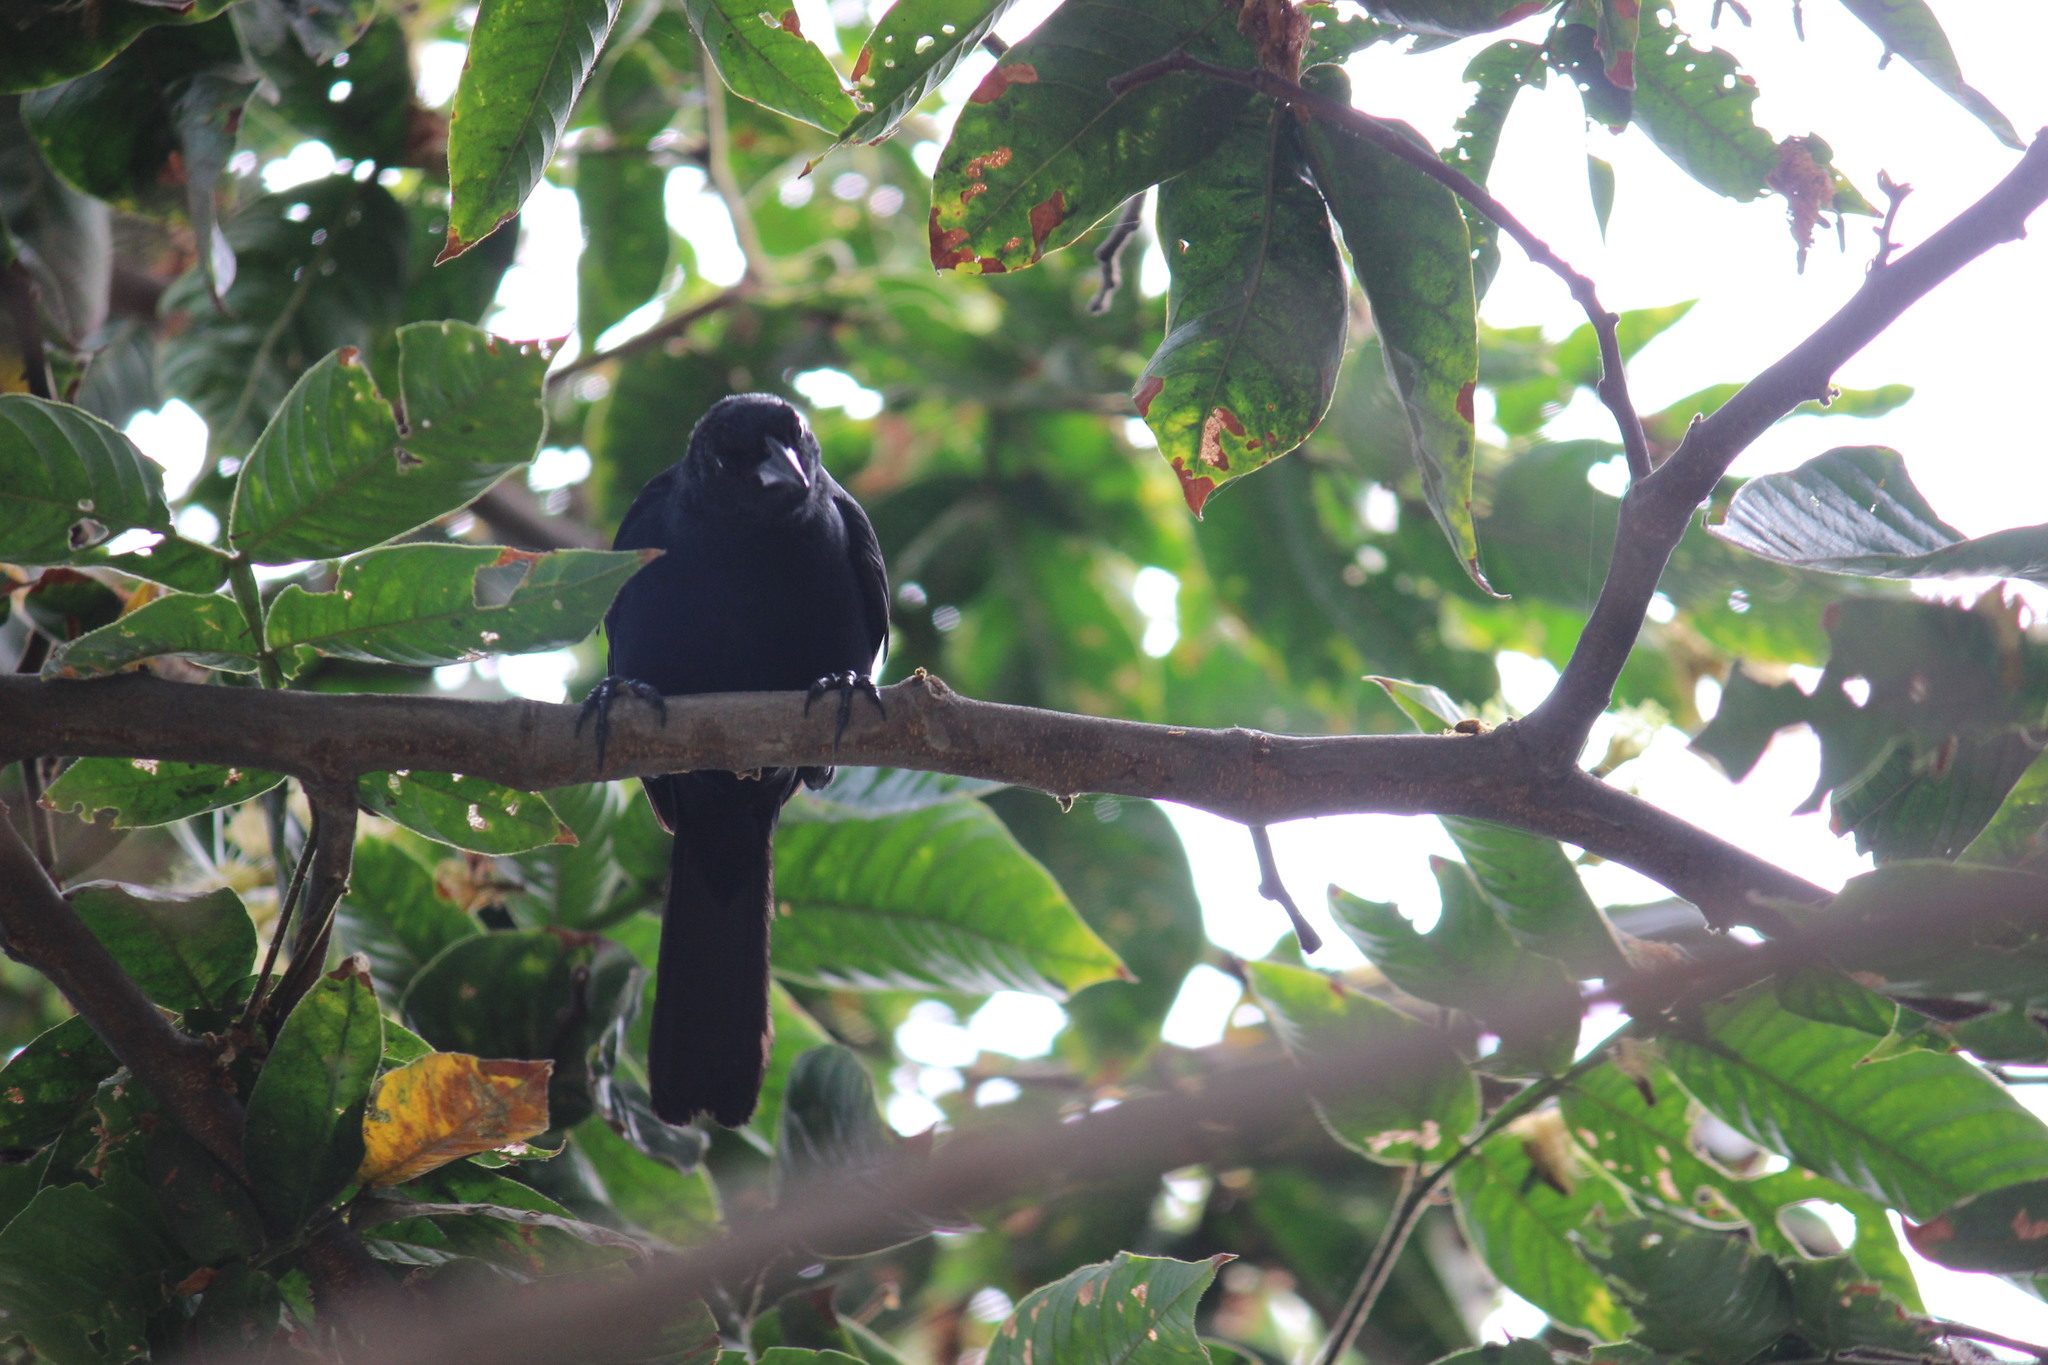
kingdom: Animalia
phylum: Chordata
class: Aves
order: Passeriformes
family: Icteridae
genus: Molothrus
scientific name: Molothrus bonariensis
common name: Shiny cowbird
